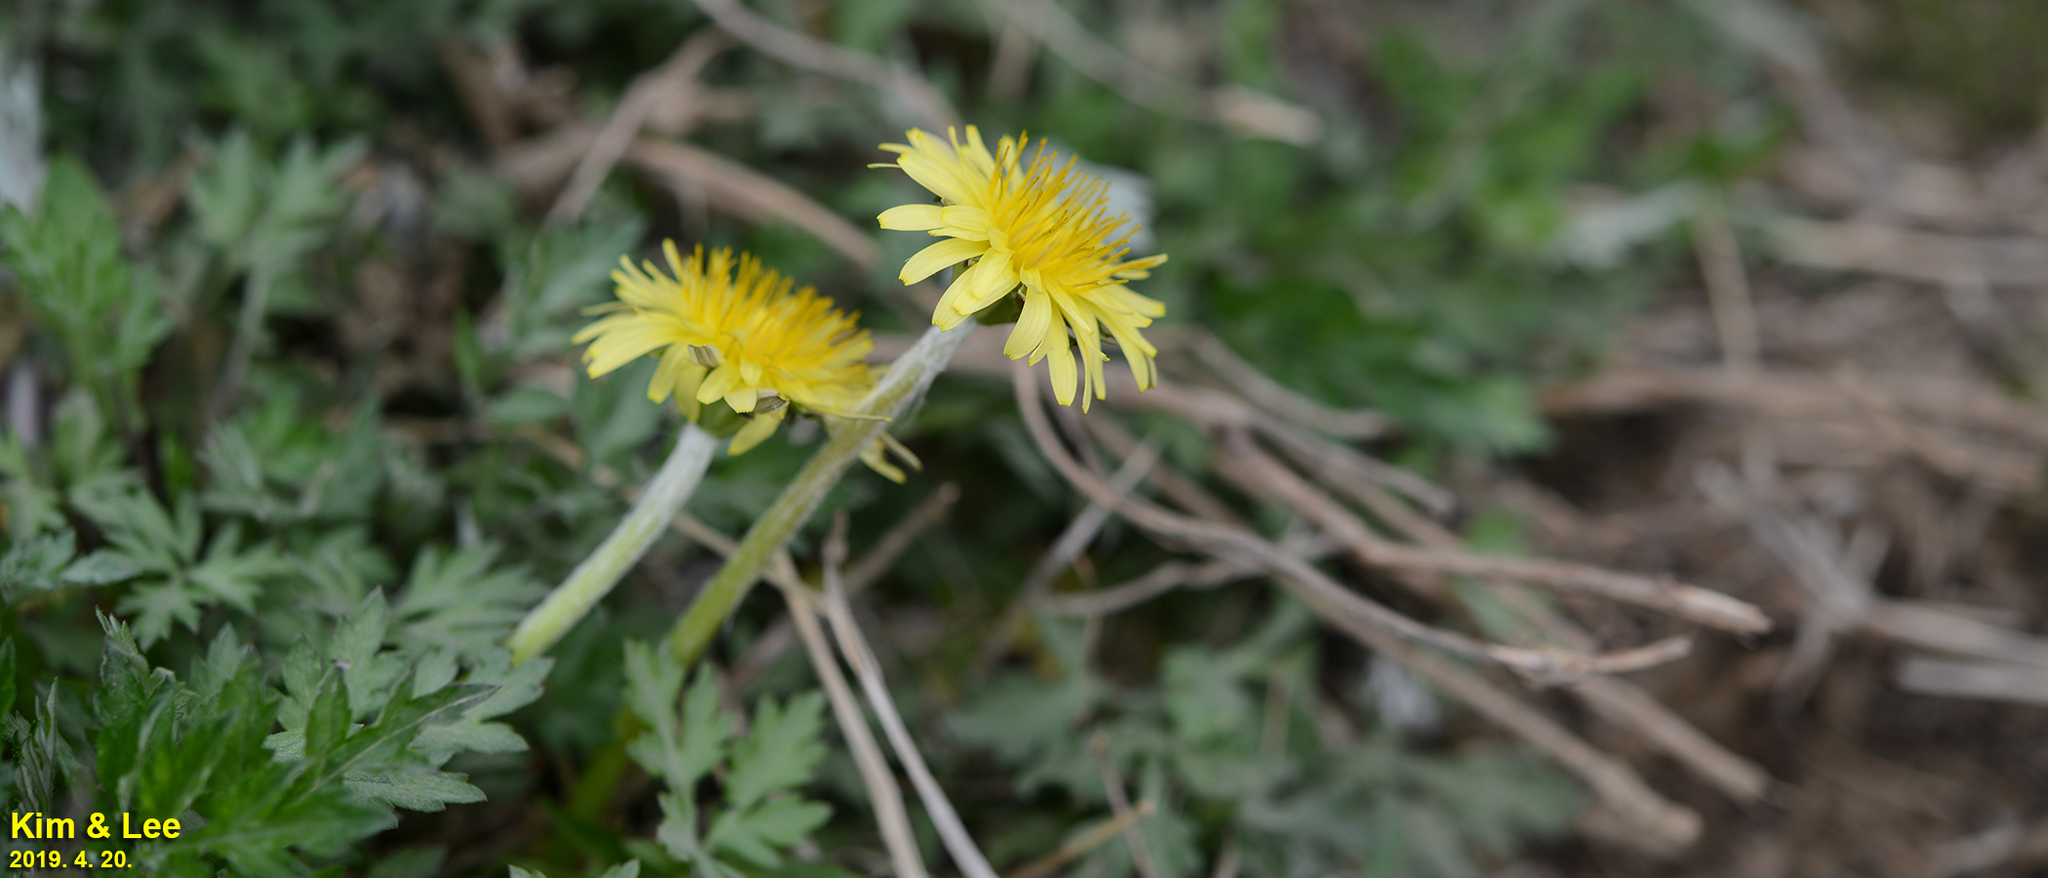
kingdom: Plantae
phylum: Tracheophyta
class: Magnoliopsida
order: Asterales
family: Asteraceae
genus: Taraxacum
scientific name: Taraxacum officinale
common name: Common dandelion
